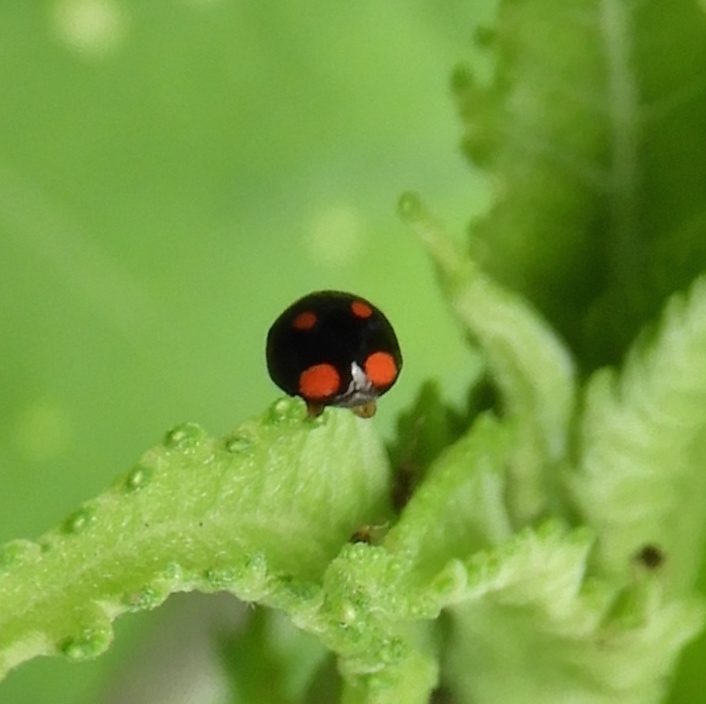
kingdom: Animalia
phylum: Arthropoda
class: Insecta
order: Coleoptera
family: Coccinellidae
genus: Brachiacantha
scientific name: Brachiacantha
